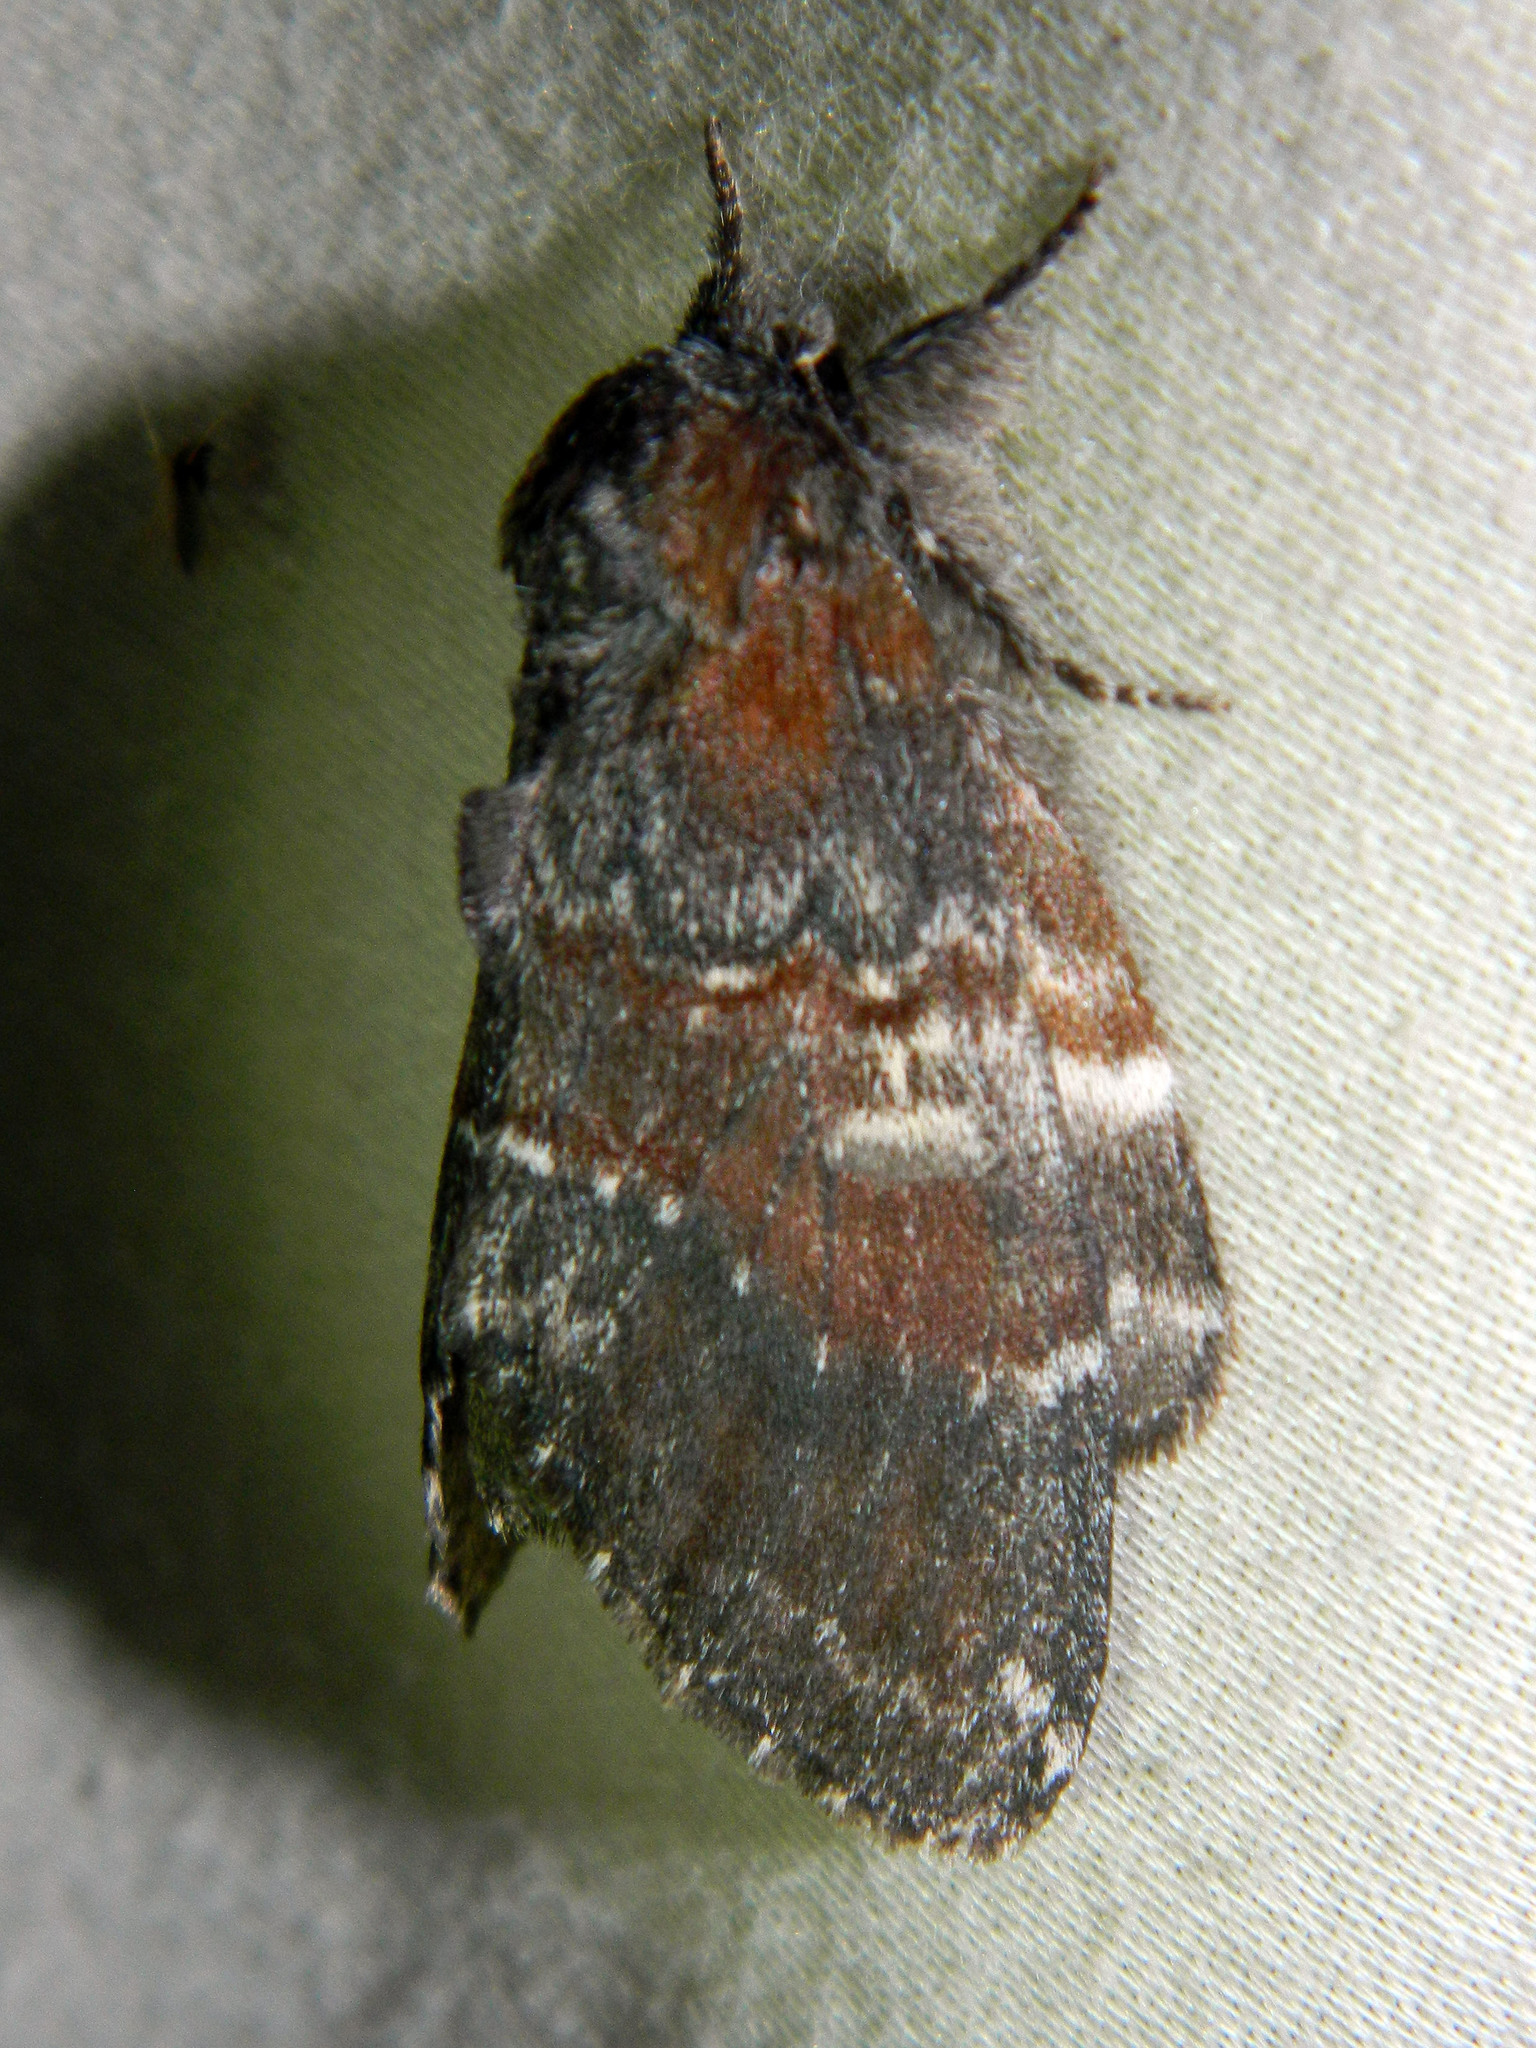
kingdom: Animalia
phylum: Arthropoda
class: Insecta
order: Lepidoptera
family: Notodontidae
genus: Peridea
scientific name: Peridea ferruginea
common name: Chocolate prominent
